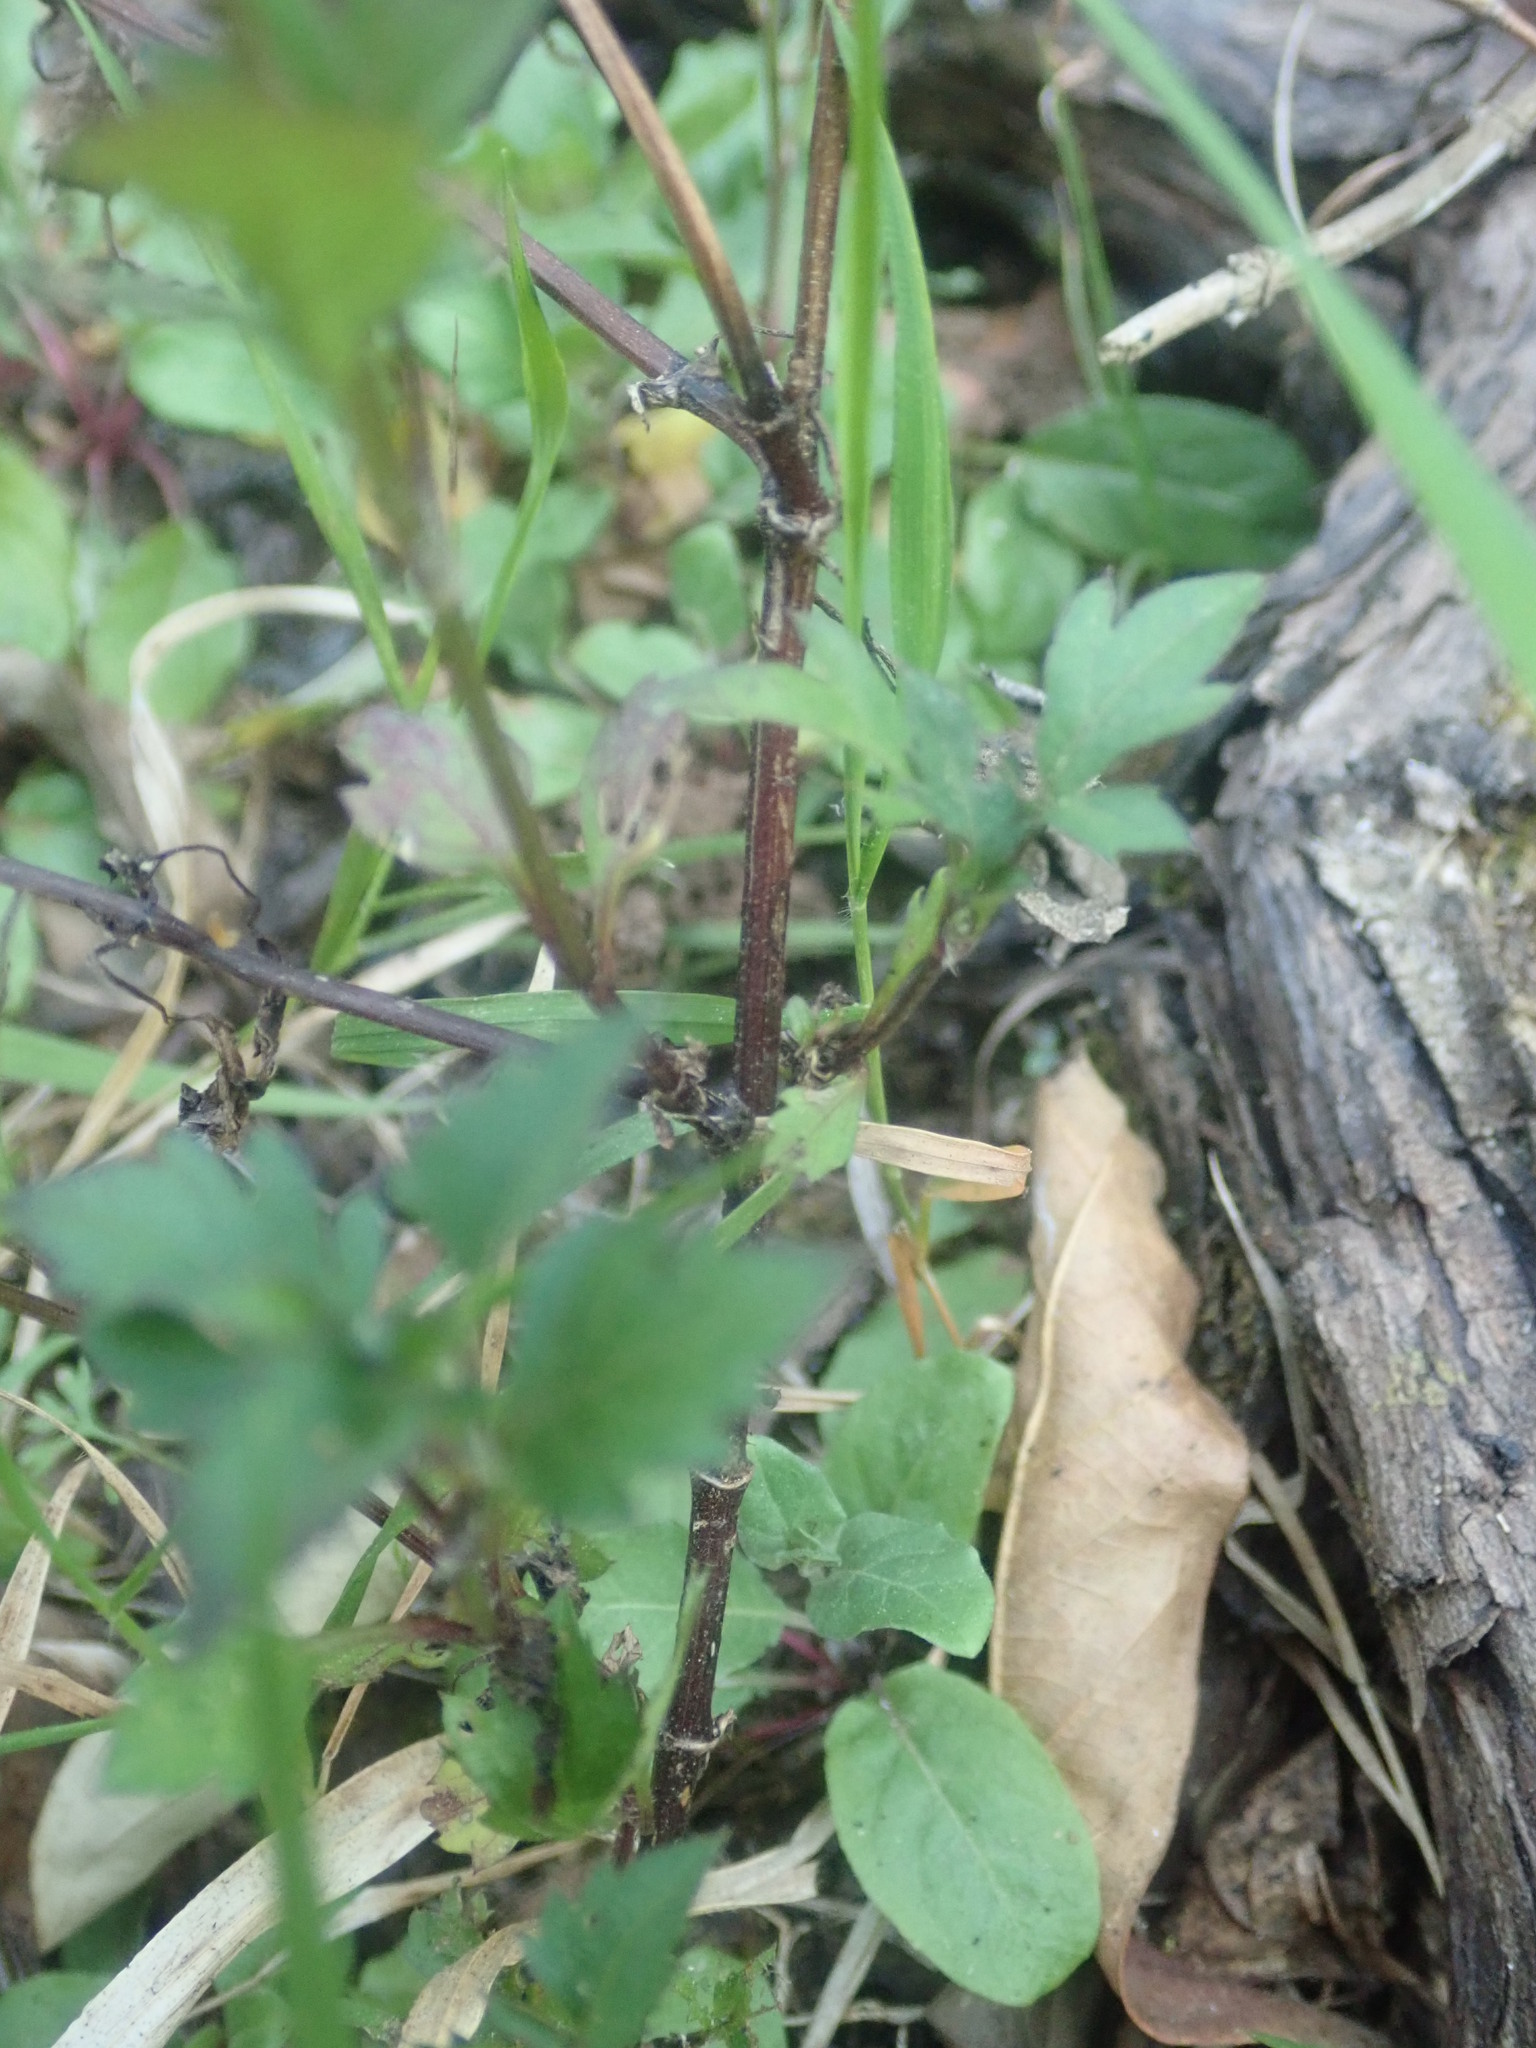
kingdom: Plantae
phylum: Tracheophyta
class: Magnoliopsida
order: Asterales
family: Asteraceae
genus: Bidens
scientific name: Bidens pilosa
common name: Black-jack
